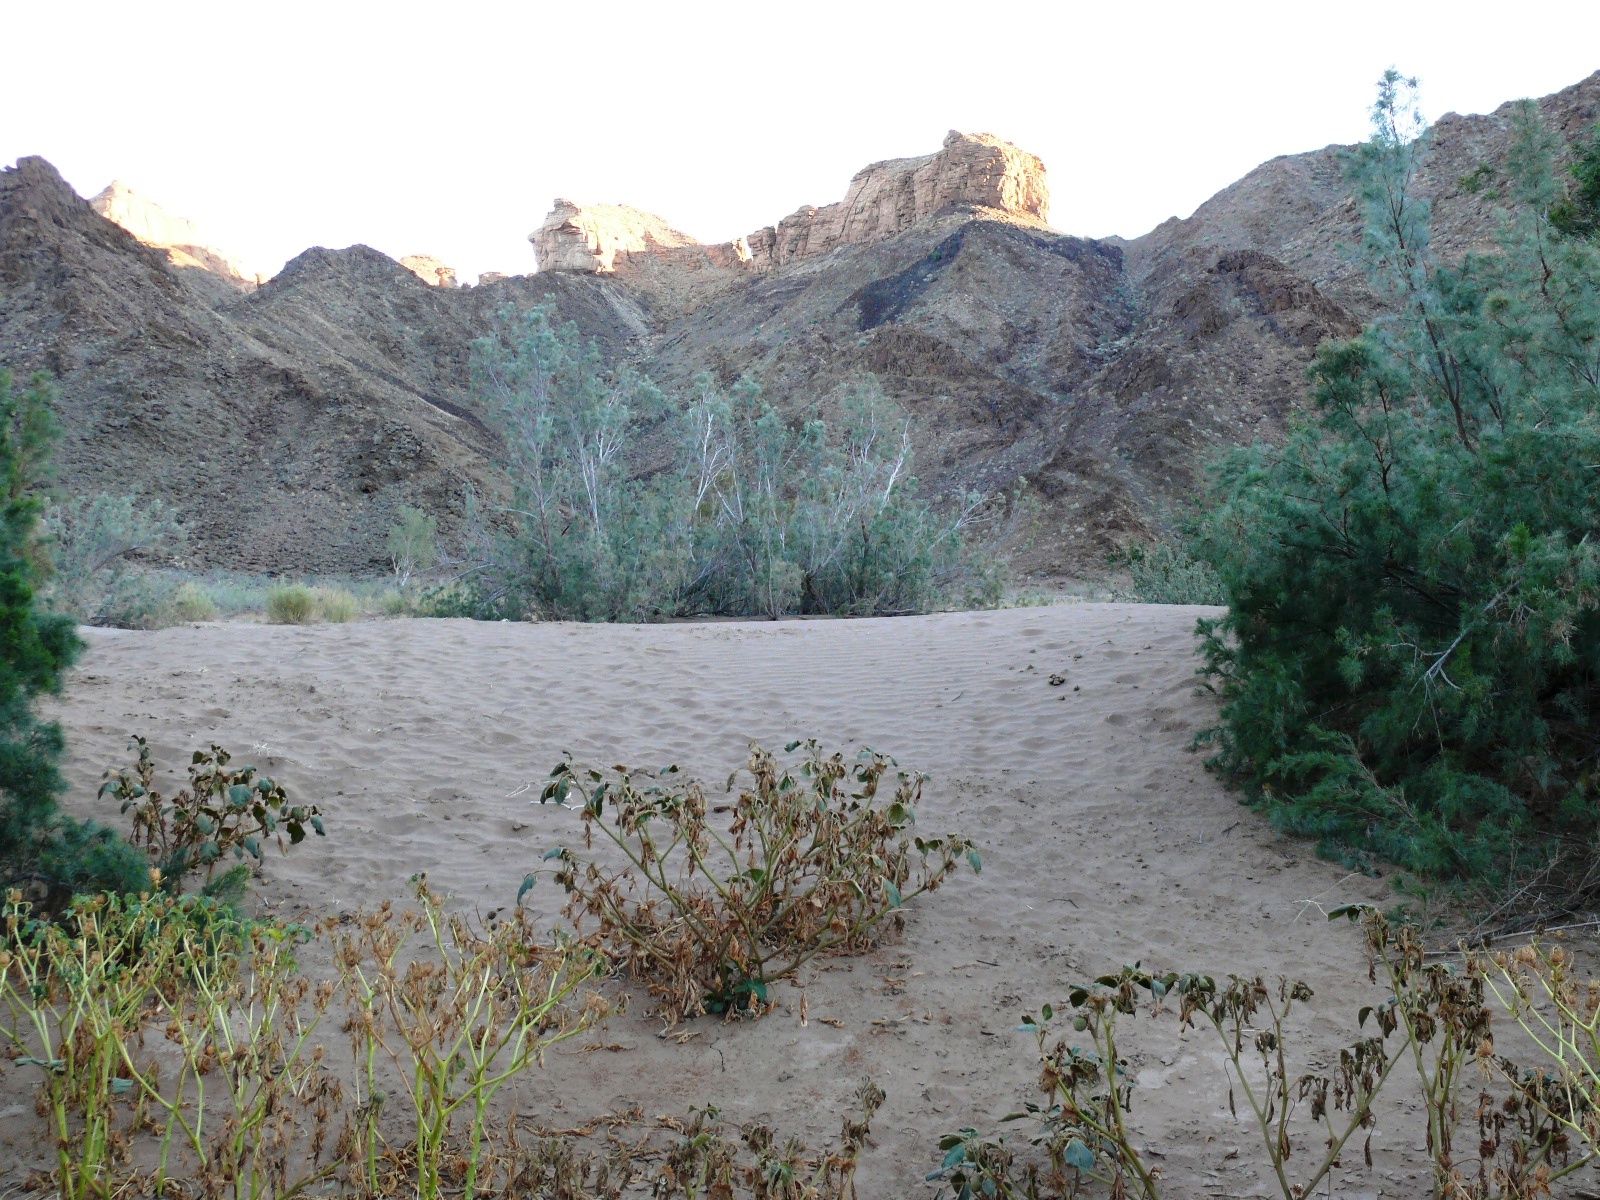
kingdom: Plantae
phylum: Tracheophyta
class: Magnoliopsida
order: Caryophyllales
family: Tamaricaceae
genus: Tamarix
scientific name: Tamarix usneoides
